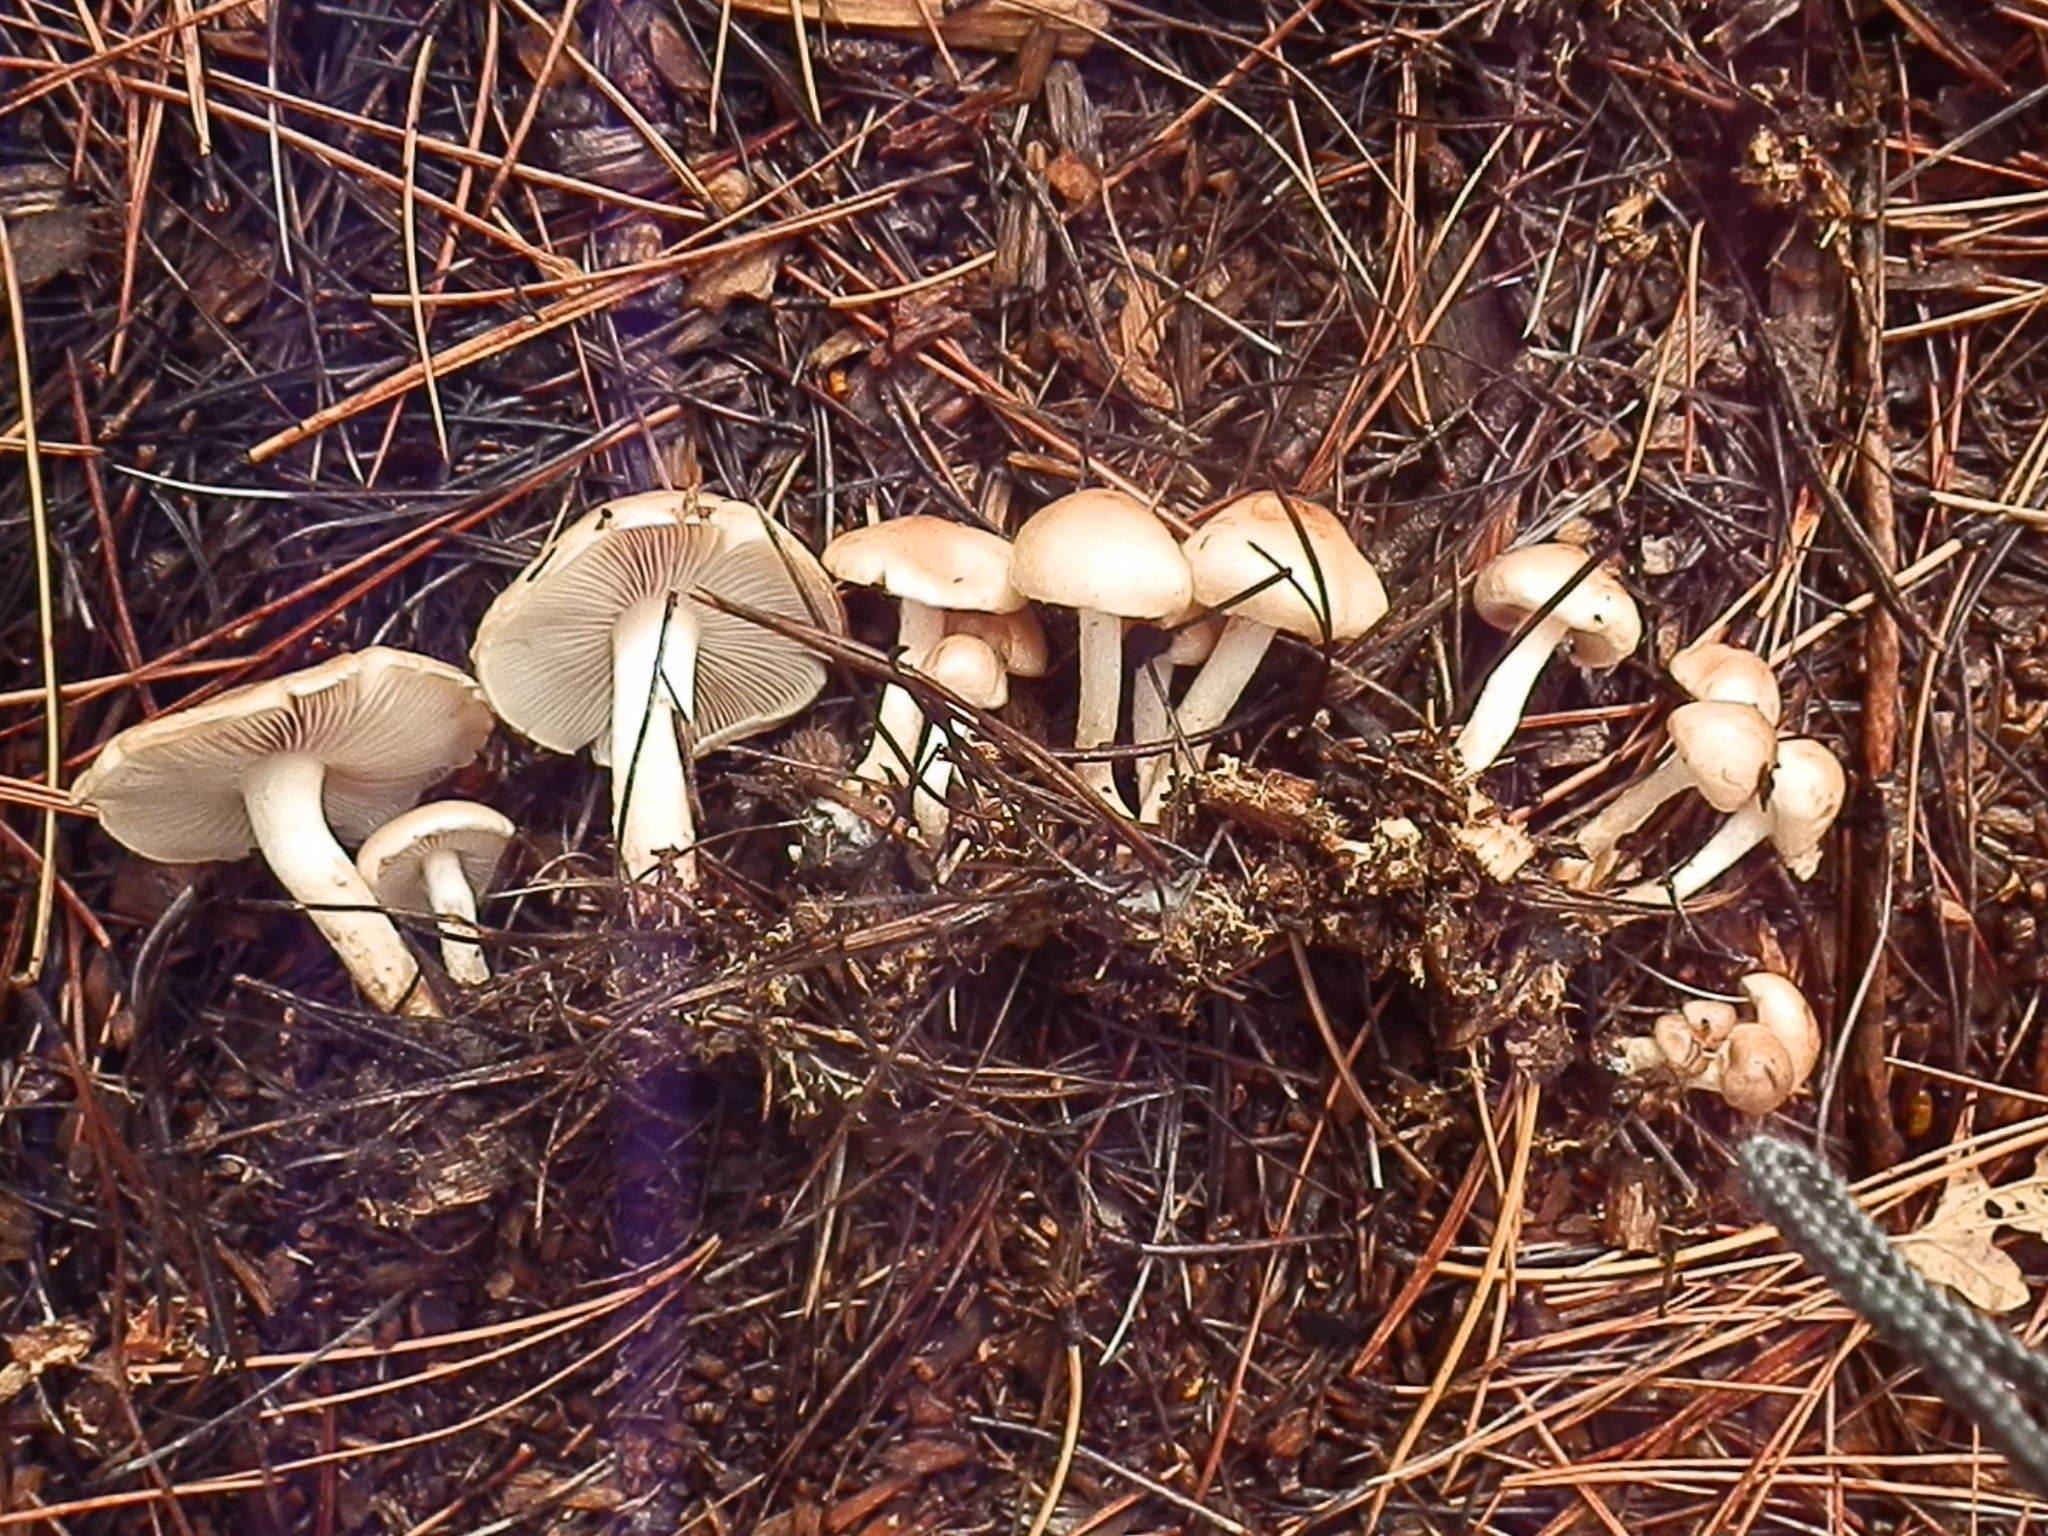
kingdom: Fungi
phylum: Basidiomycota
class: Agaricomycetes
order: Agaricales
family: Strophariaceae
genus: Pholiota
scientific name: Pholiota lenta
